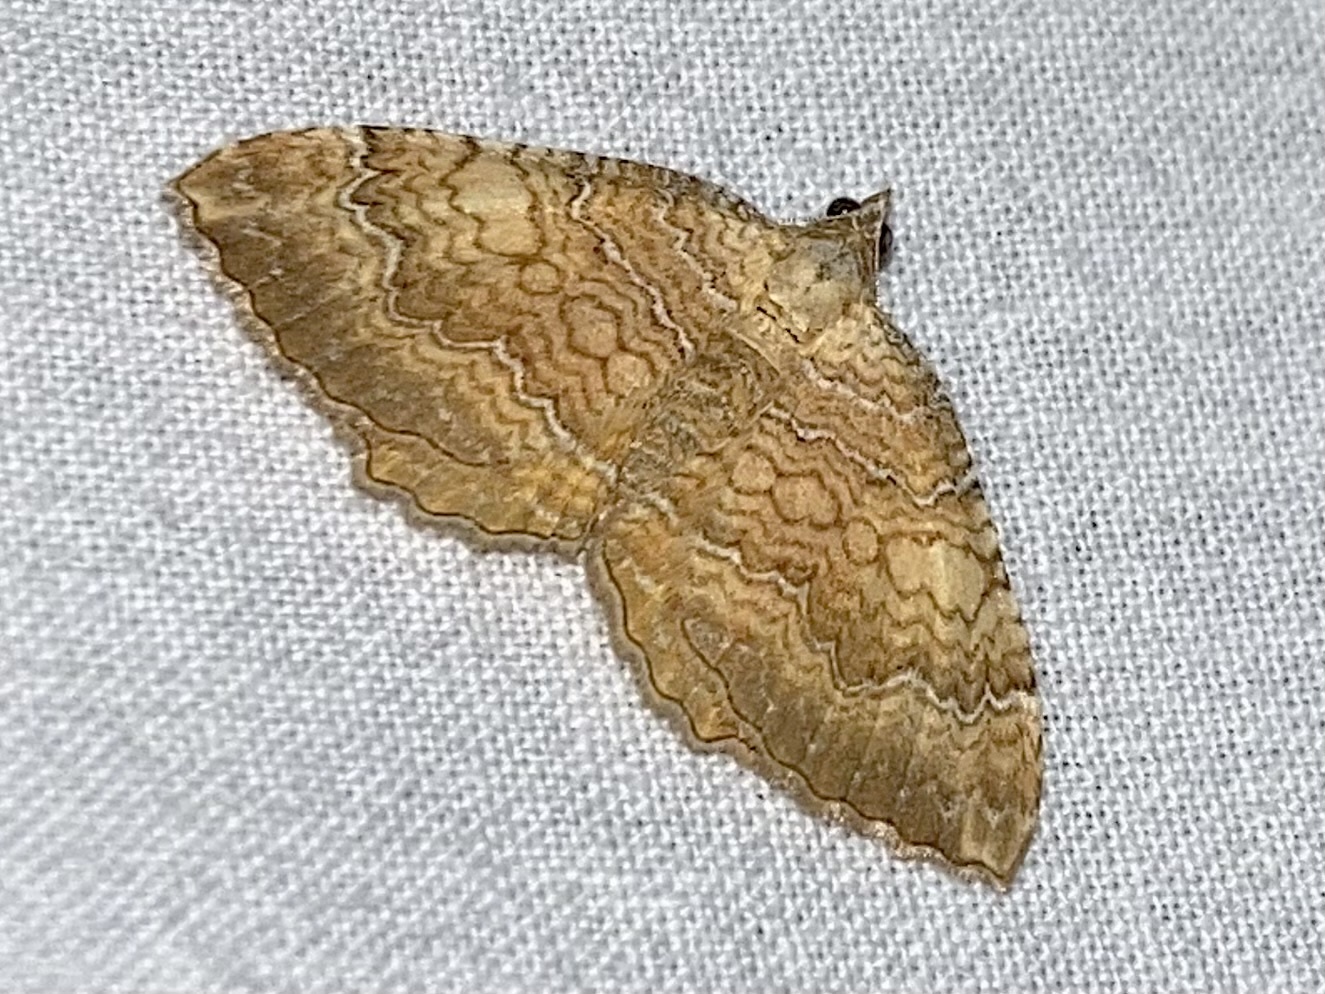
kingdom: Animalia
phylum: Arthropoda
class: Insecta
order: Lepidoptera
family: Geometridae
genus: Camptogramma
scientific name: Camptogramma bilineata
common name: Yellow shell
